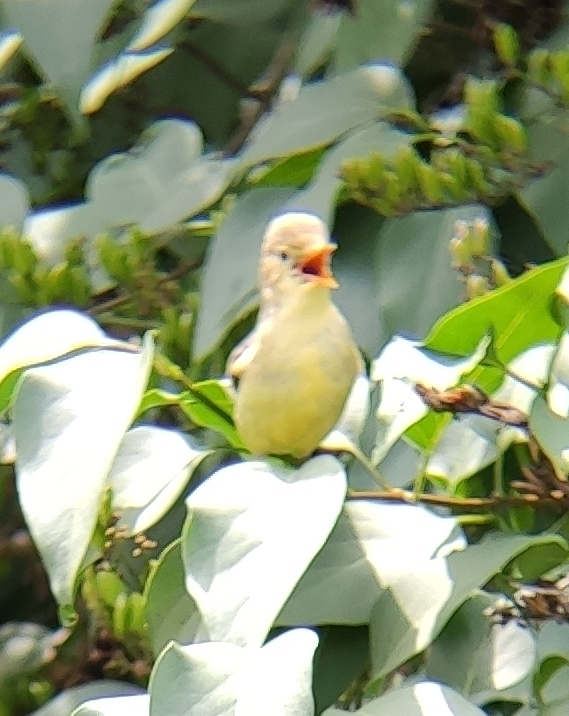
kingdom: Animalia
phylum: Chordata
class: Aves
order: Passeriformes
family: Acrocephalidae
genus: Hippolais
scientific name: Hippolais icterina
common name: Icterine warbler
